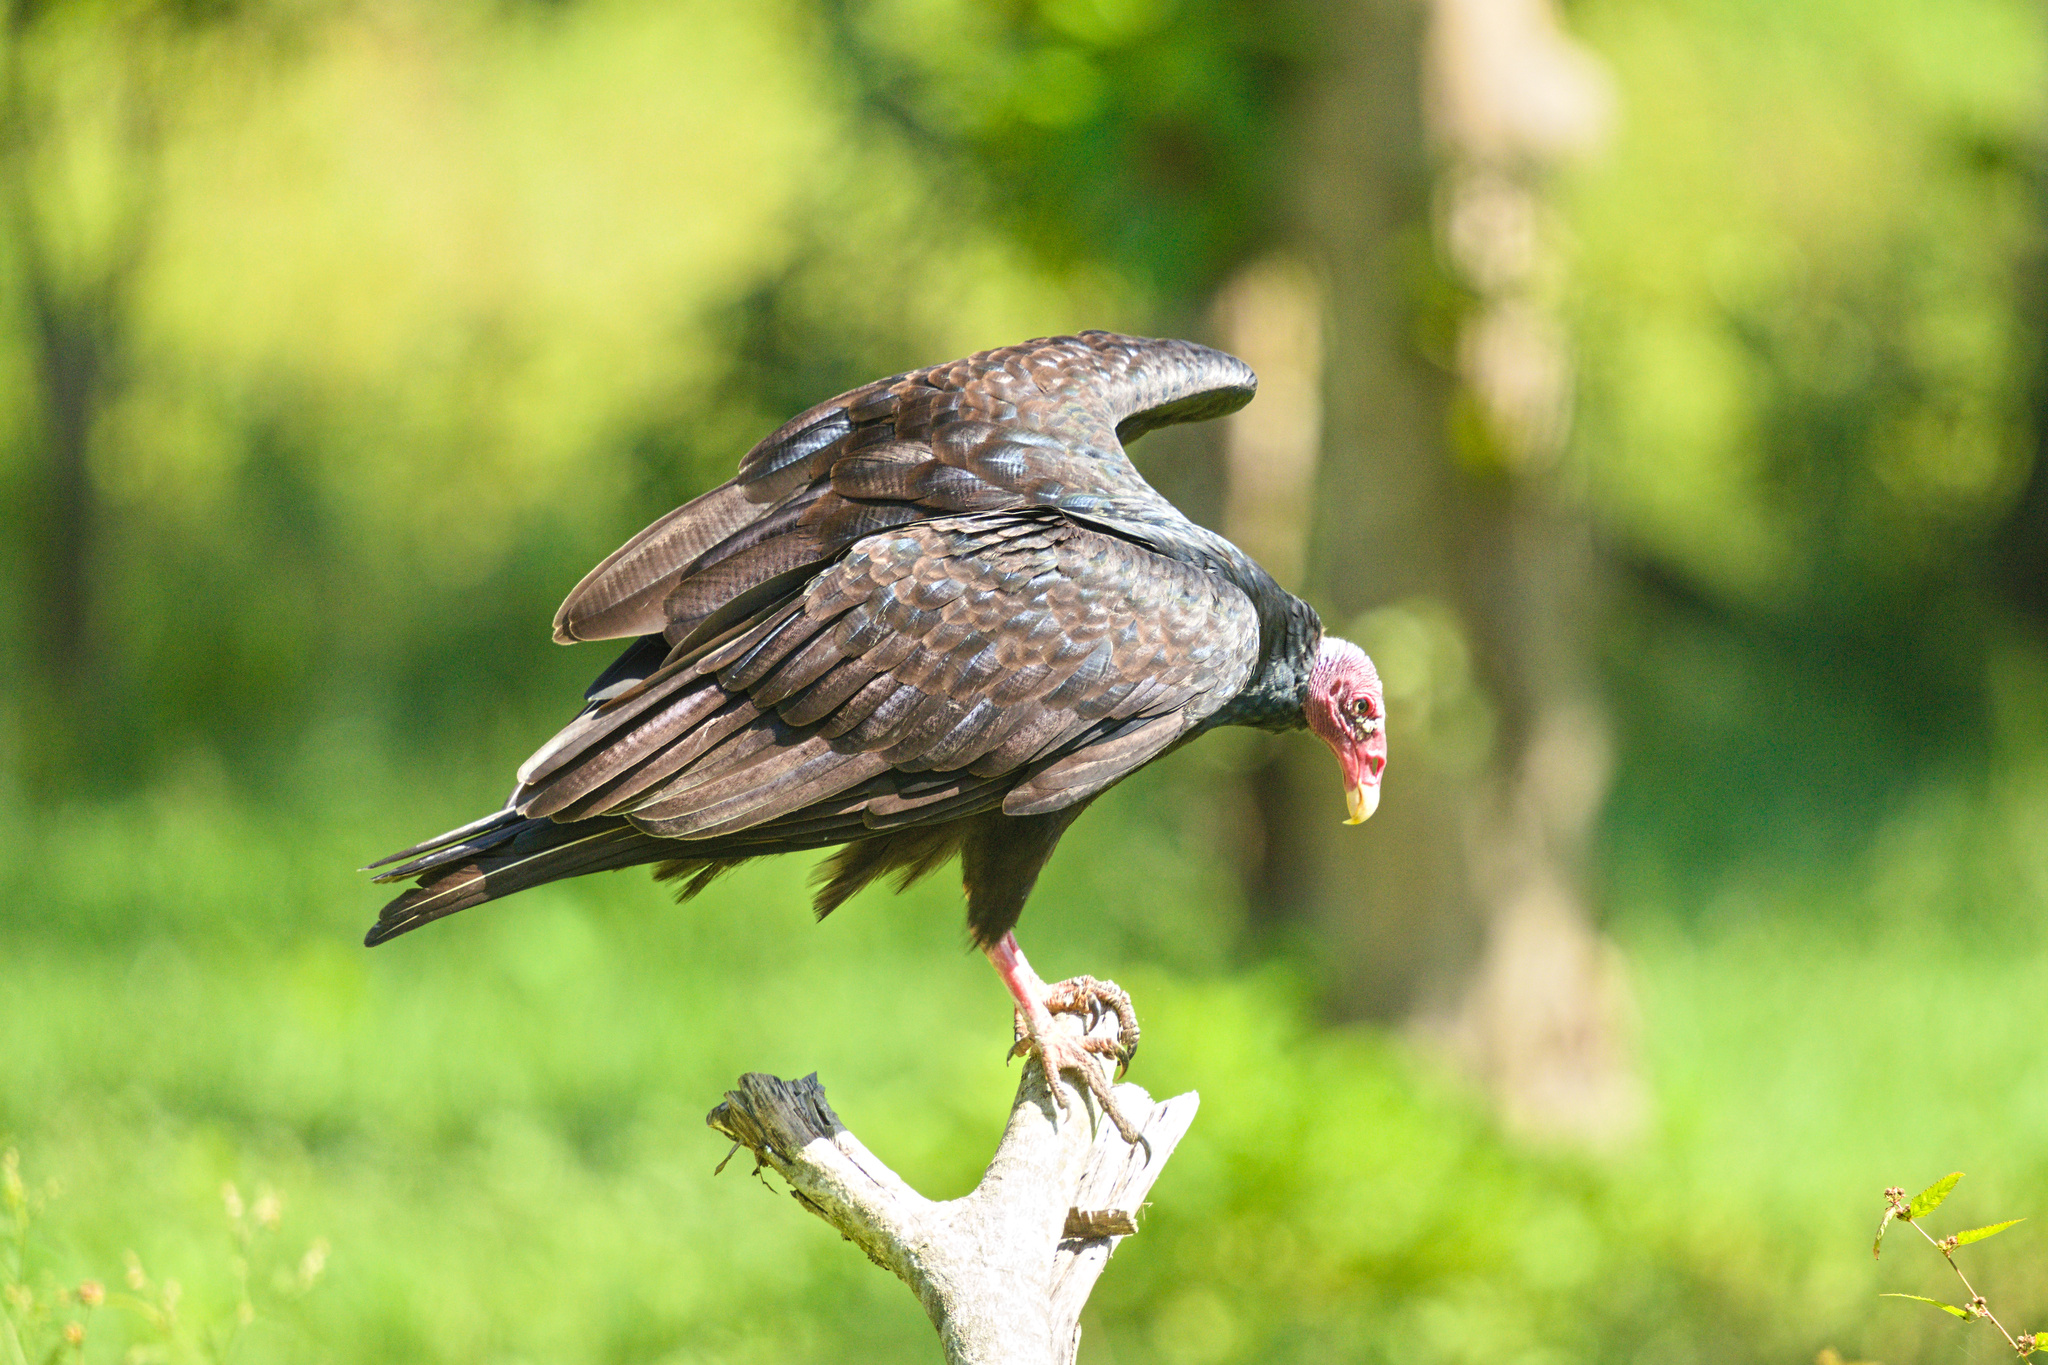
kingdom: Animalia
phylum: Chordata
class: Aves
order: Accipitriformes
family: Cathartidae
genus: Cathartes
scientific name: Cathartes aura
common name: Turkey vulture
